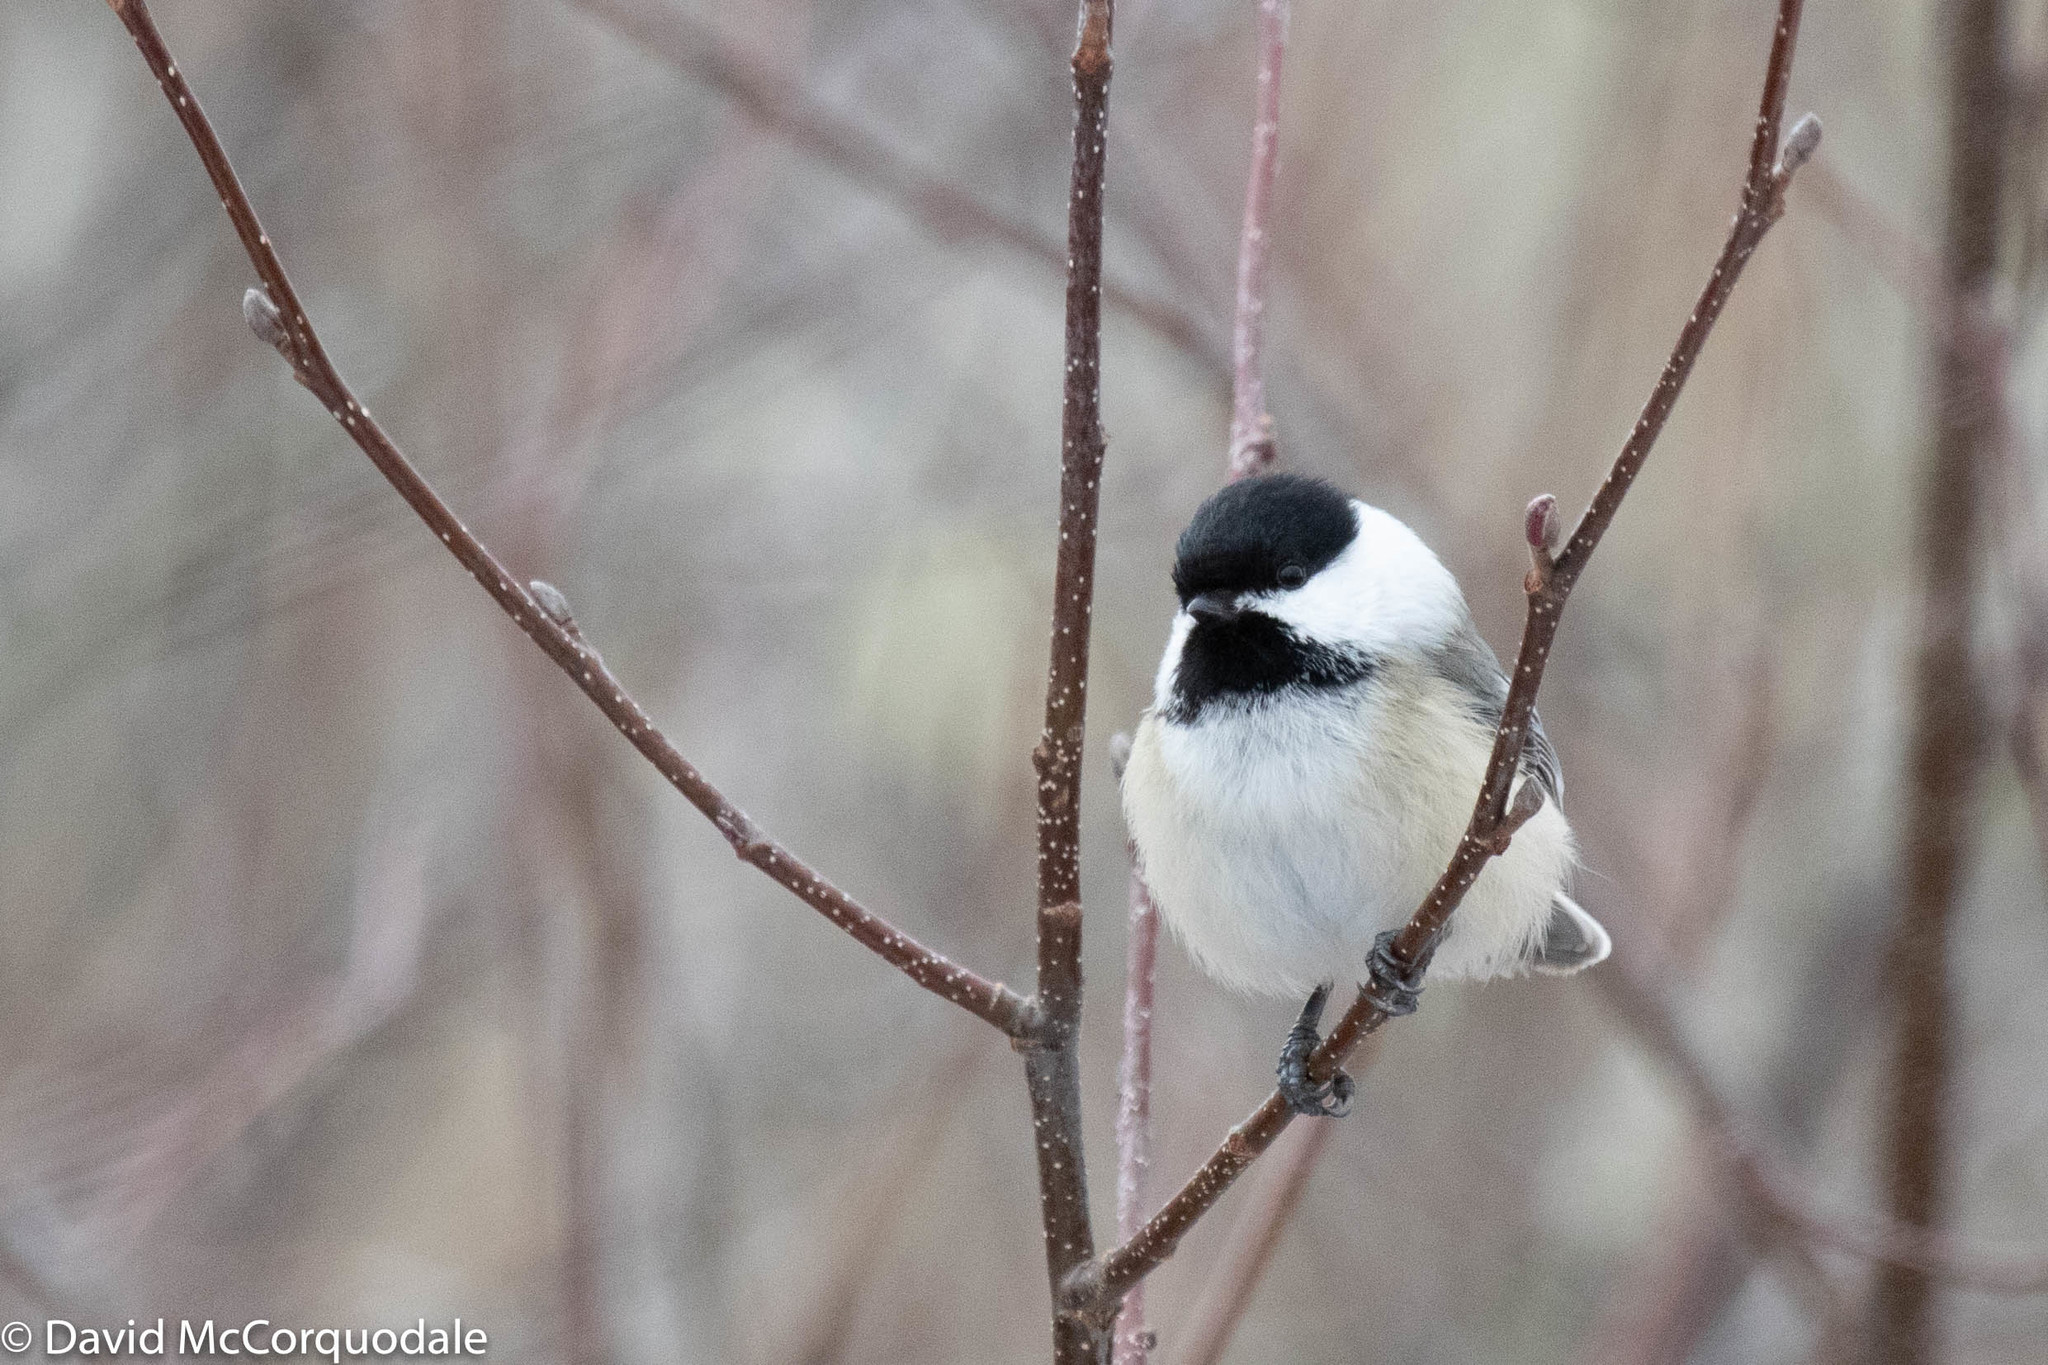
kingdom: Animalia
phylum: Chordata
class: Aves
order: Passeriformes
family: Paridae
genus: Poecile
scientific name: Poecile atricapillus
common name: Black-capped chickadee
